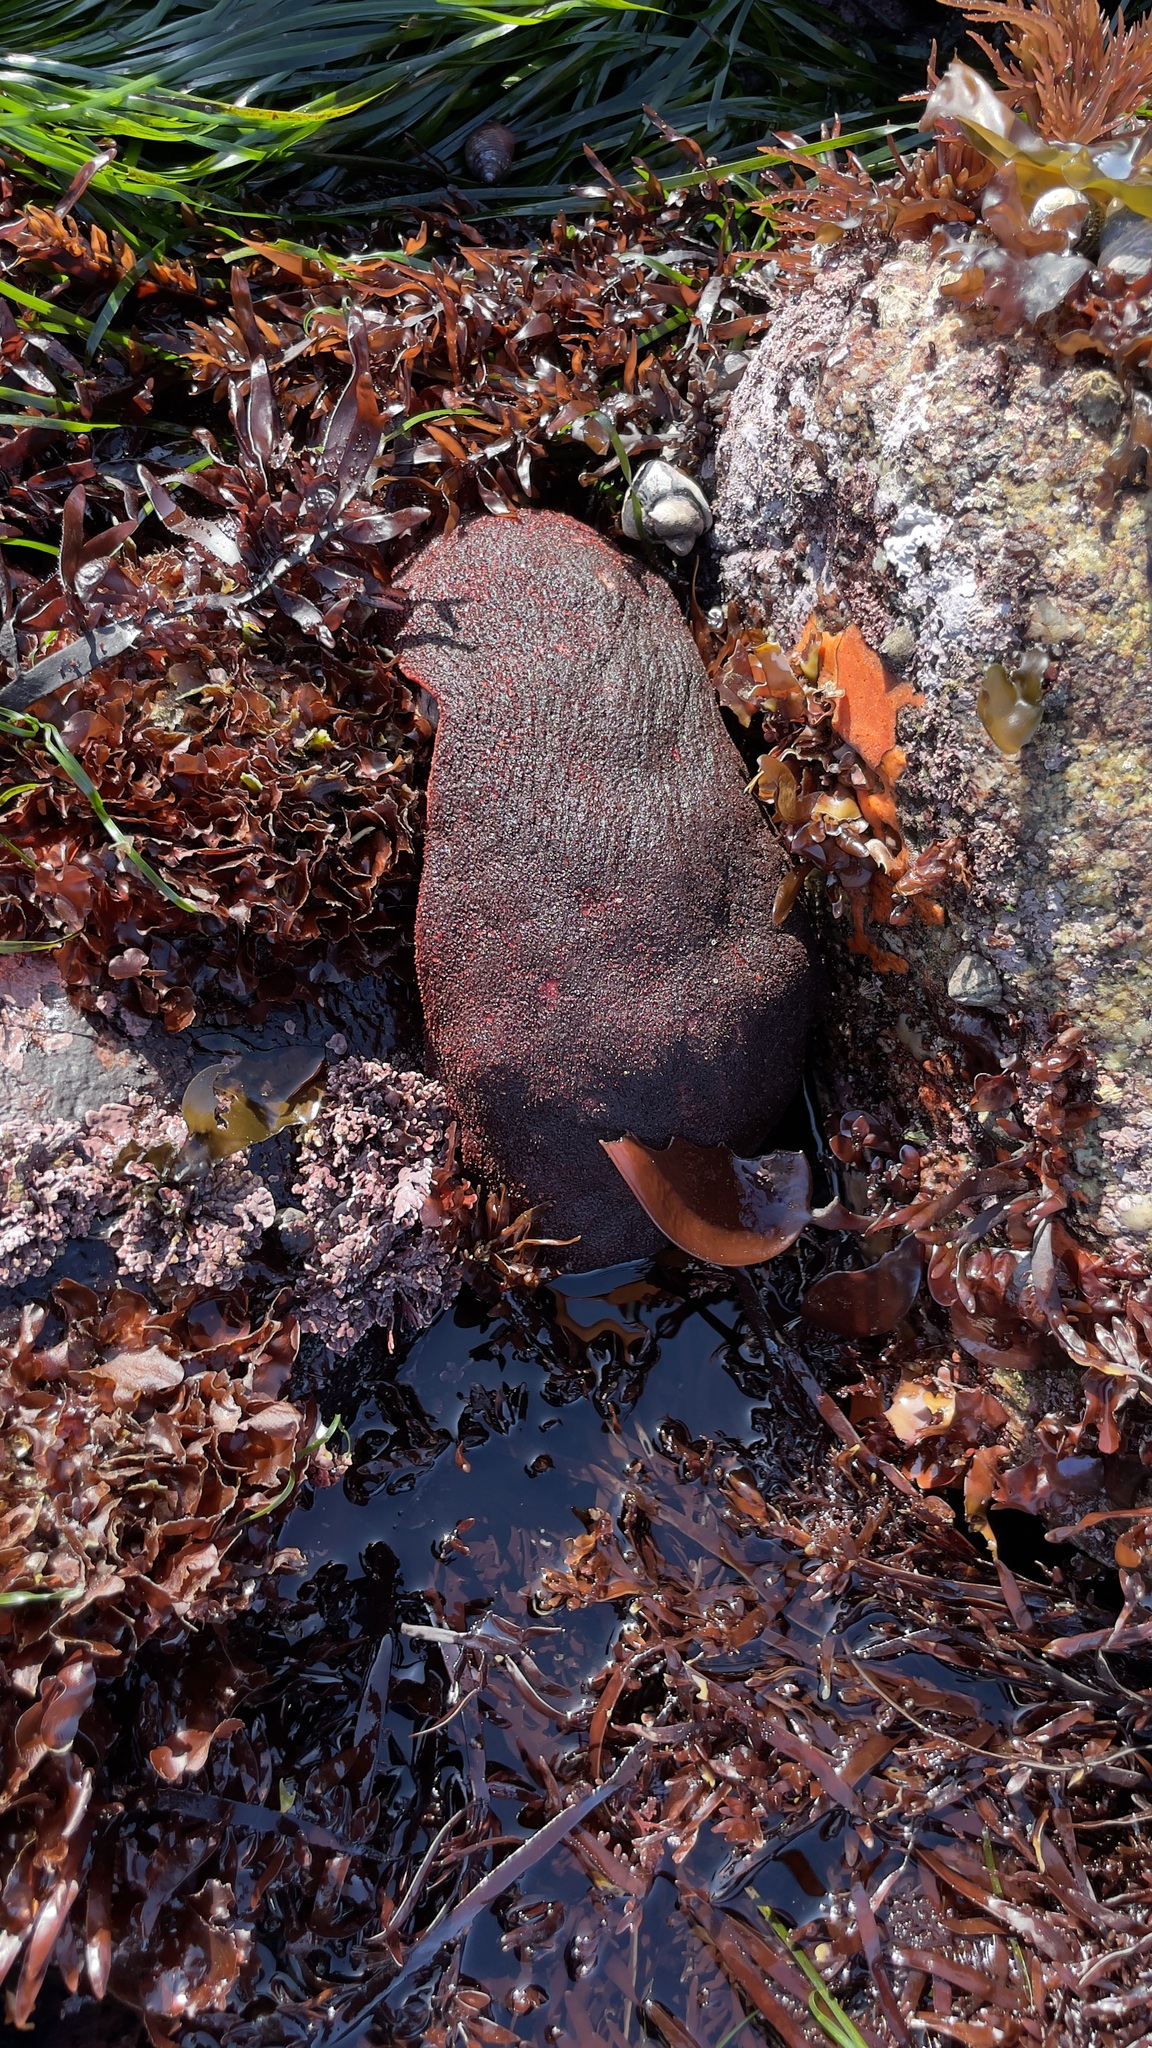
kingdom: Animalia
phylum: Mollusca
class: Polyplacophora
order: Chitonida
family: Acanthochitonidae
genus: Cryptochiton
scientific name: Cryptochiton stelleri
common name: Giant pacific chiton
